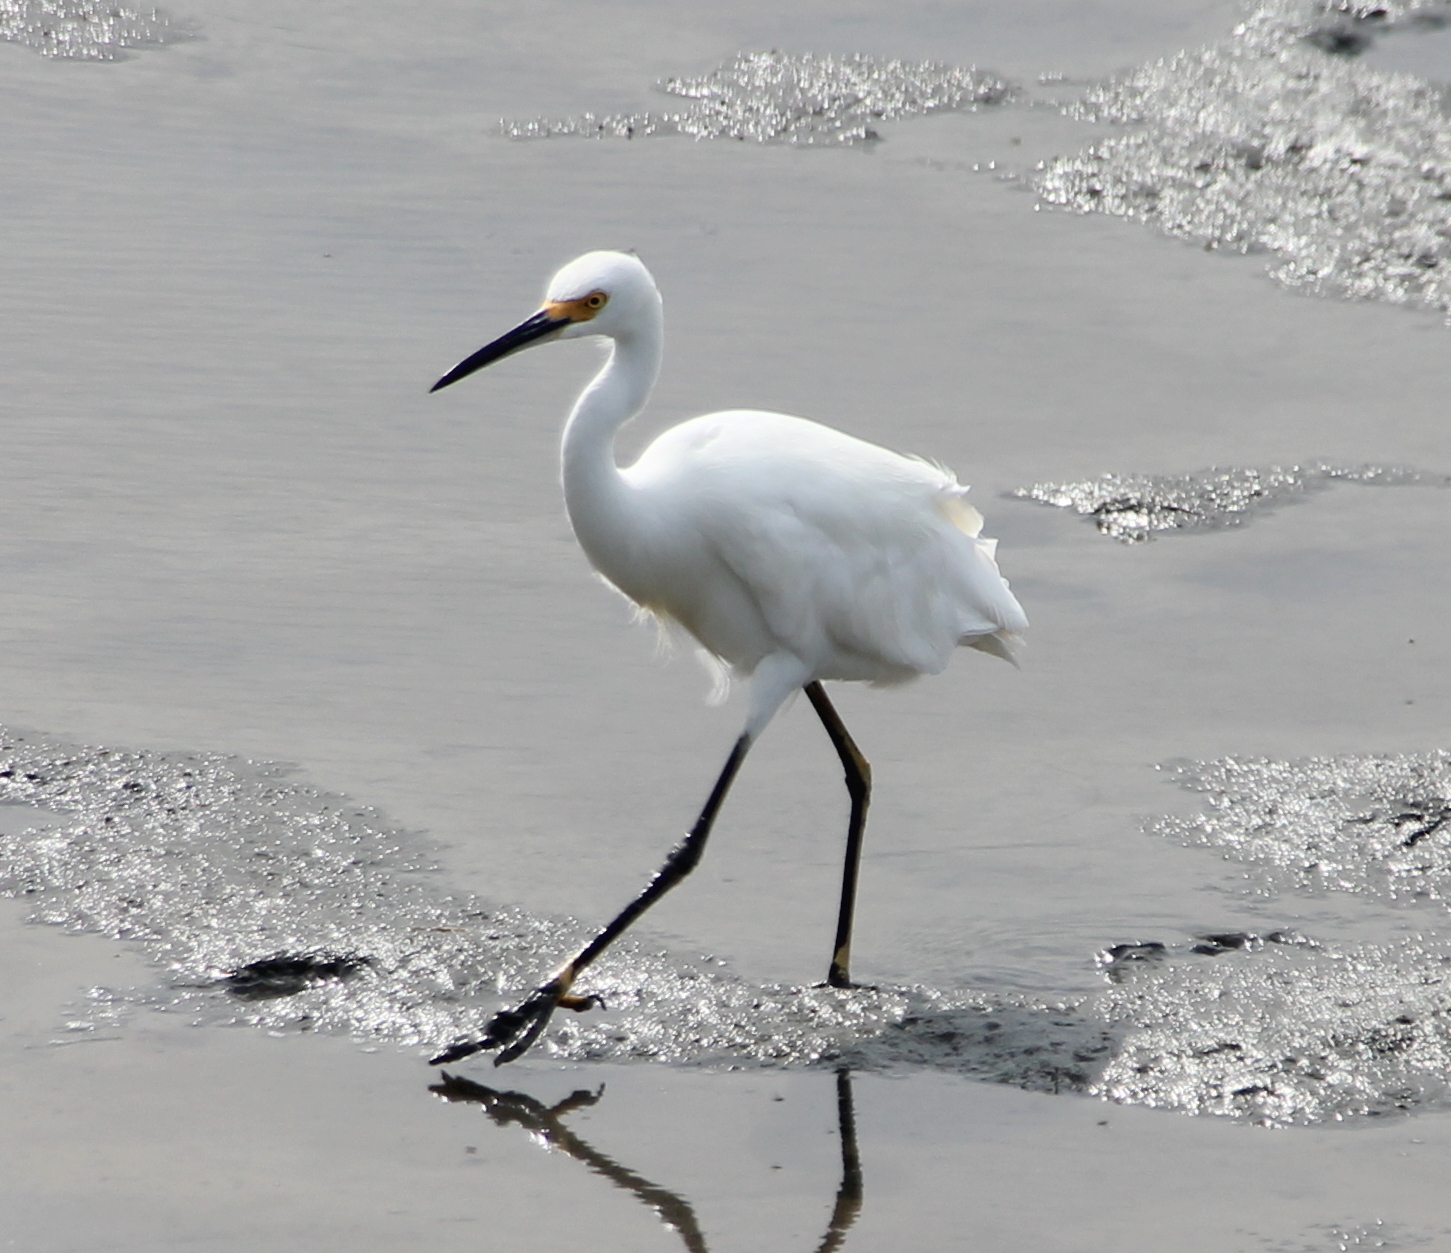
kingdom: Animalia
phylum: Chordata
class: Aves
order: Pelecaniformes
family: Ardeidae
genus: Egretta
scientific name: Egretta thula
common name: Snowy egret
